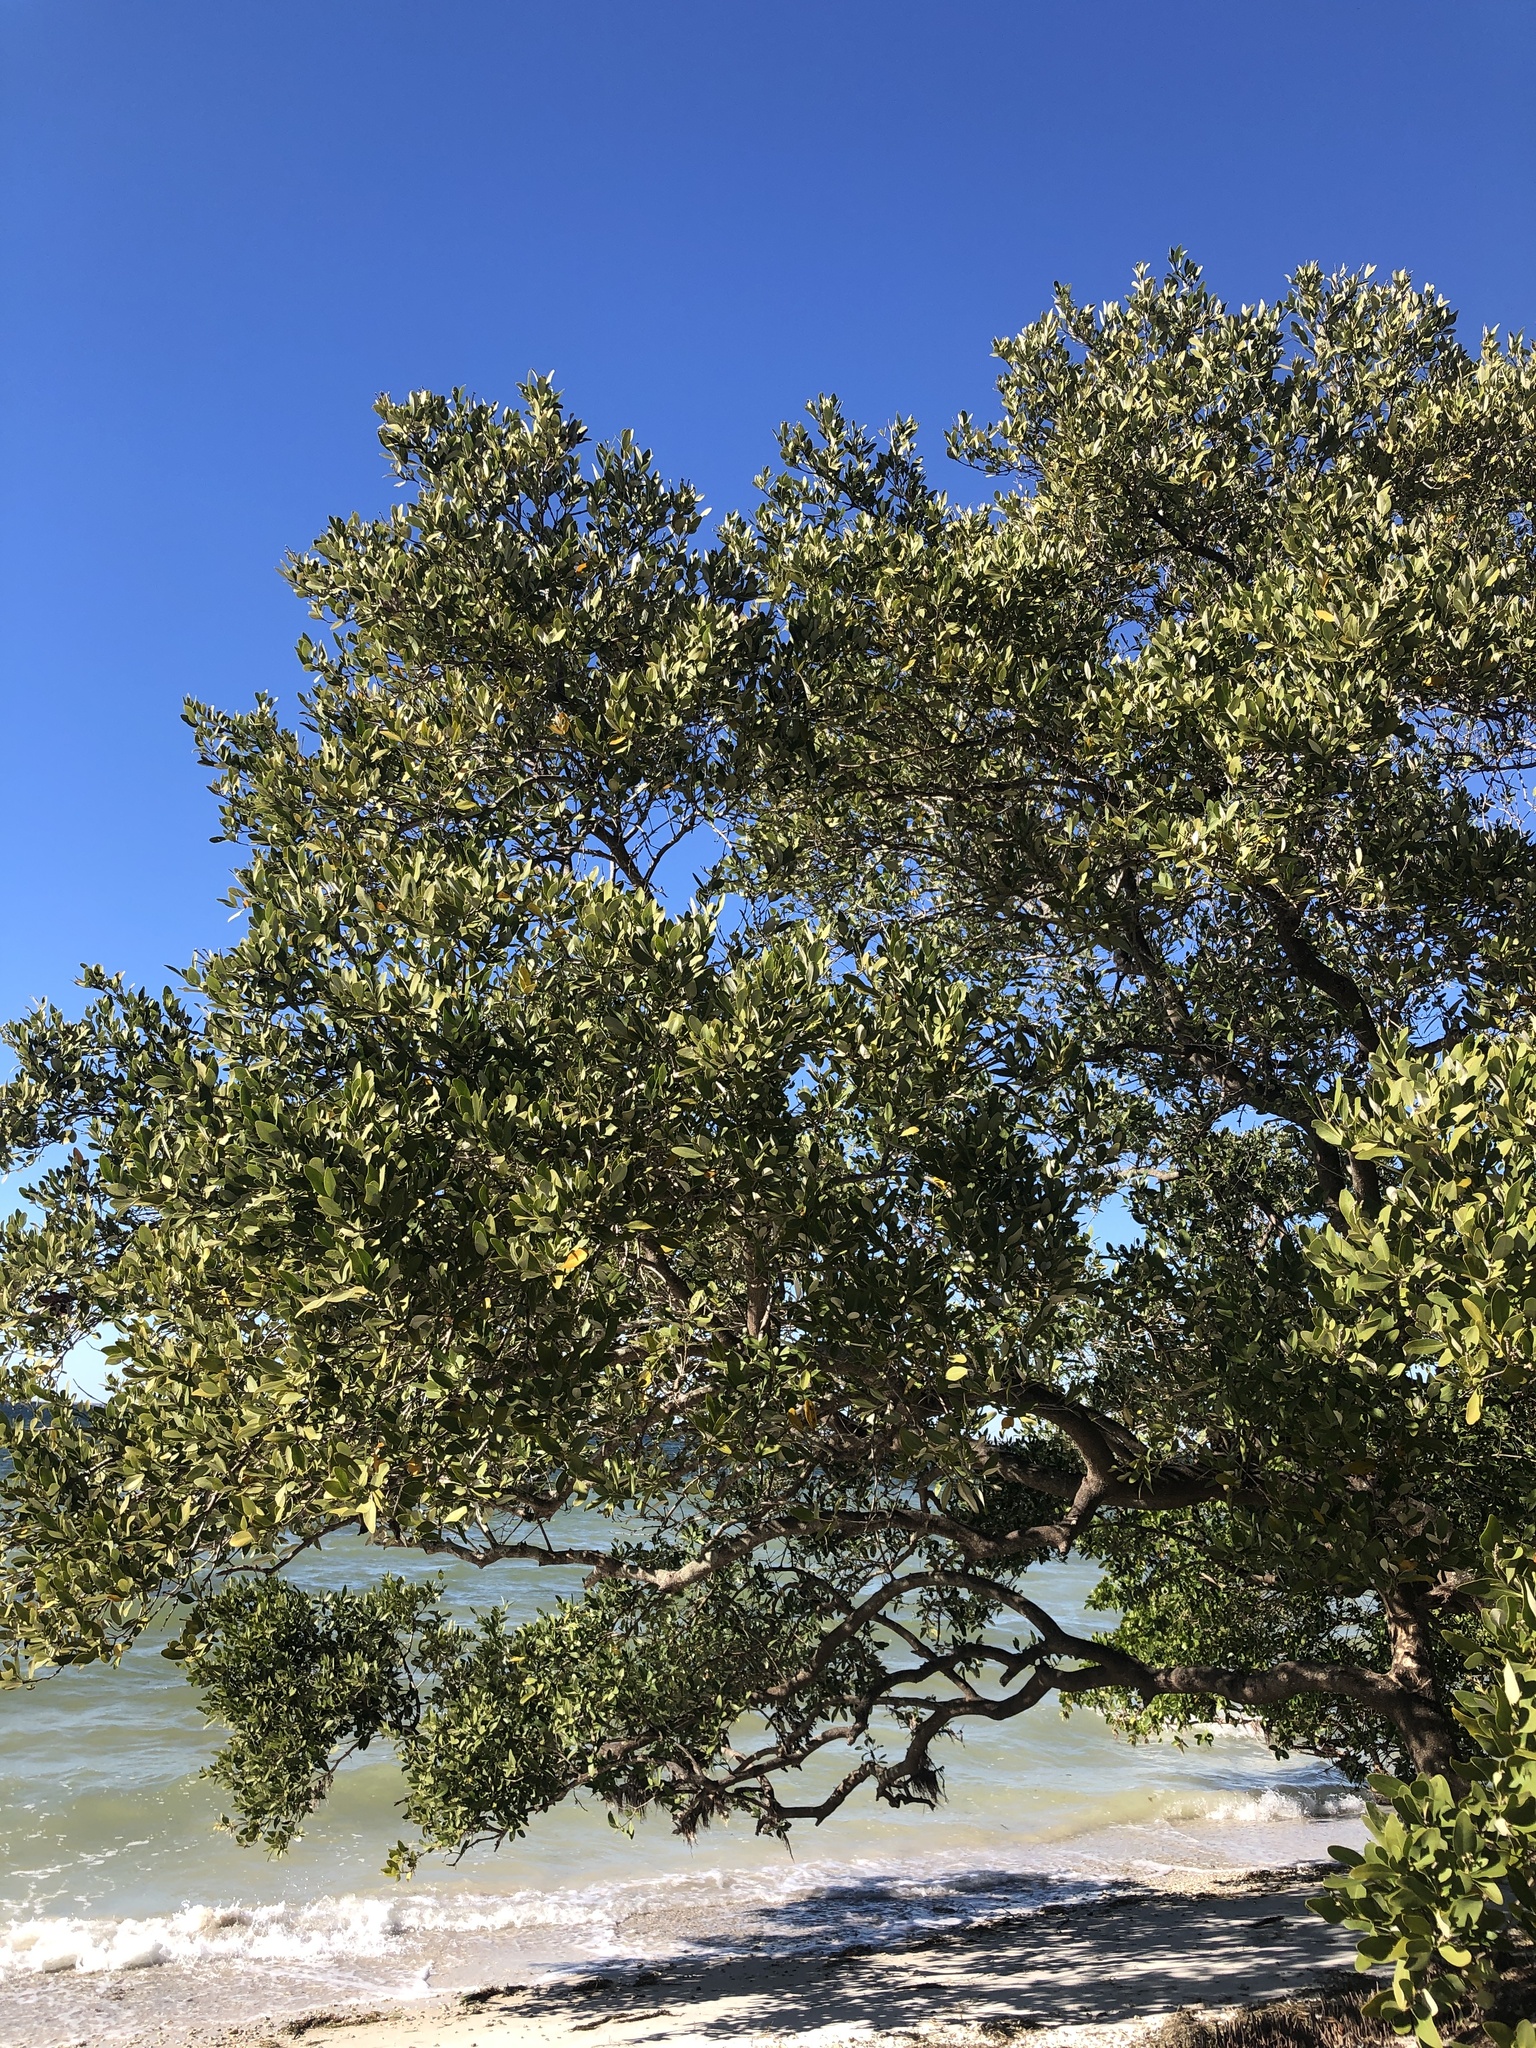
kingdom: Plantae
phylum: Tracheophyta
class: Magnoliopsida
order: Lamiales
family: Acanthaceae
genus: Avicennia
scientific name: Avicennia germinans
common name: Black mangrove
